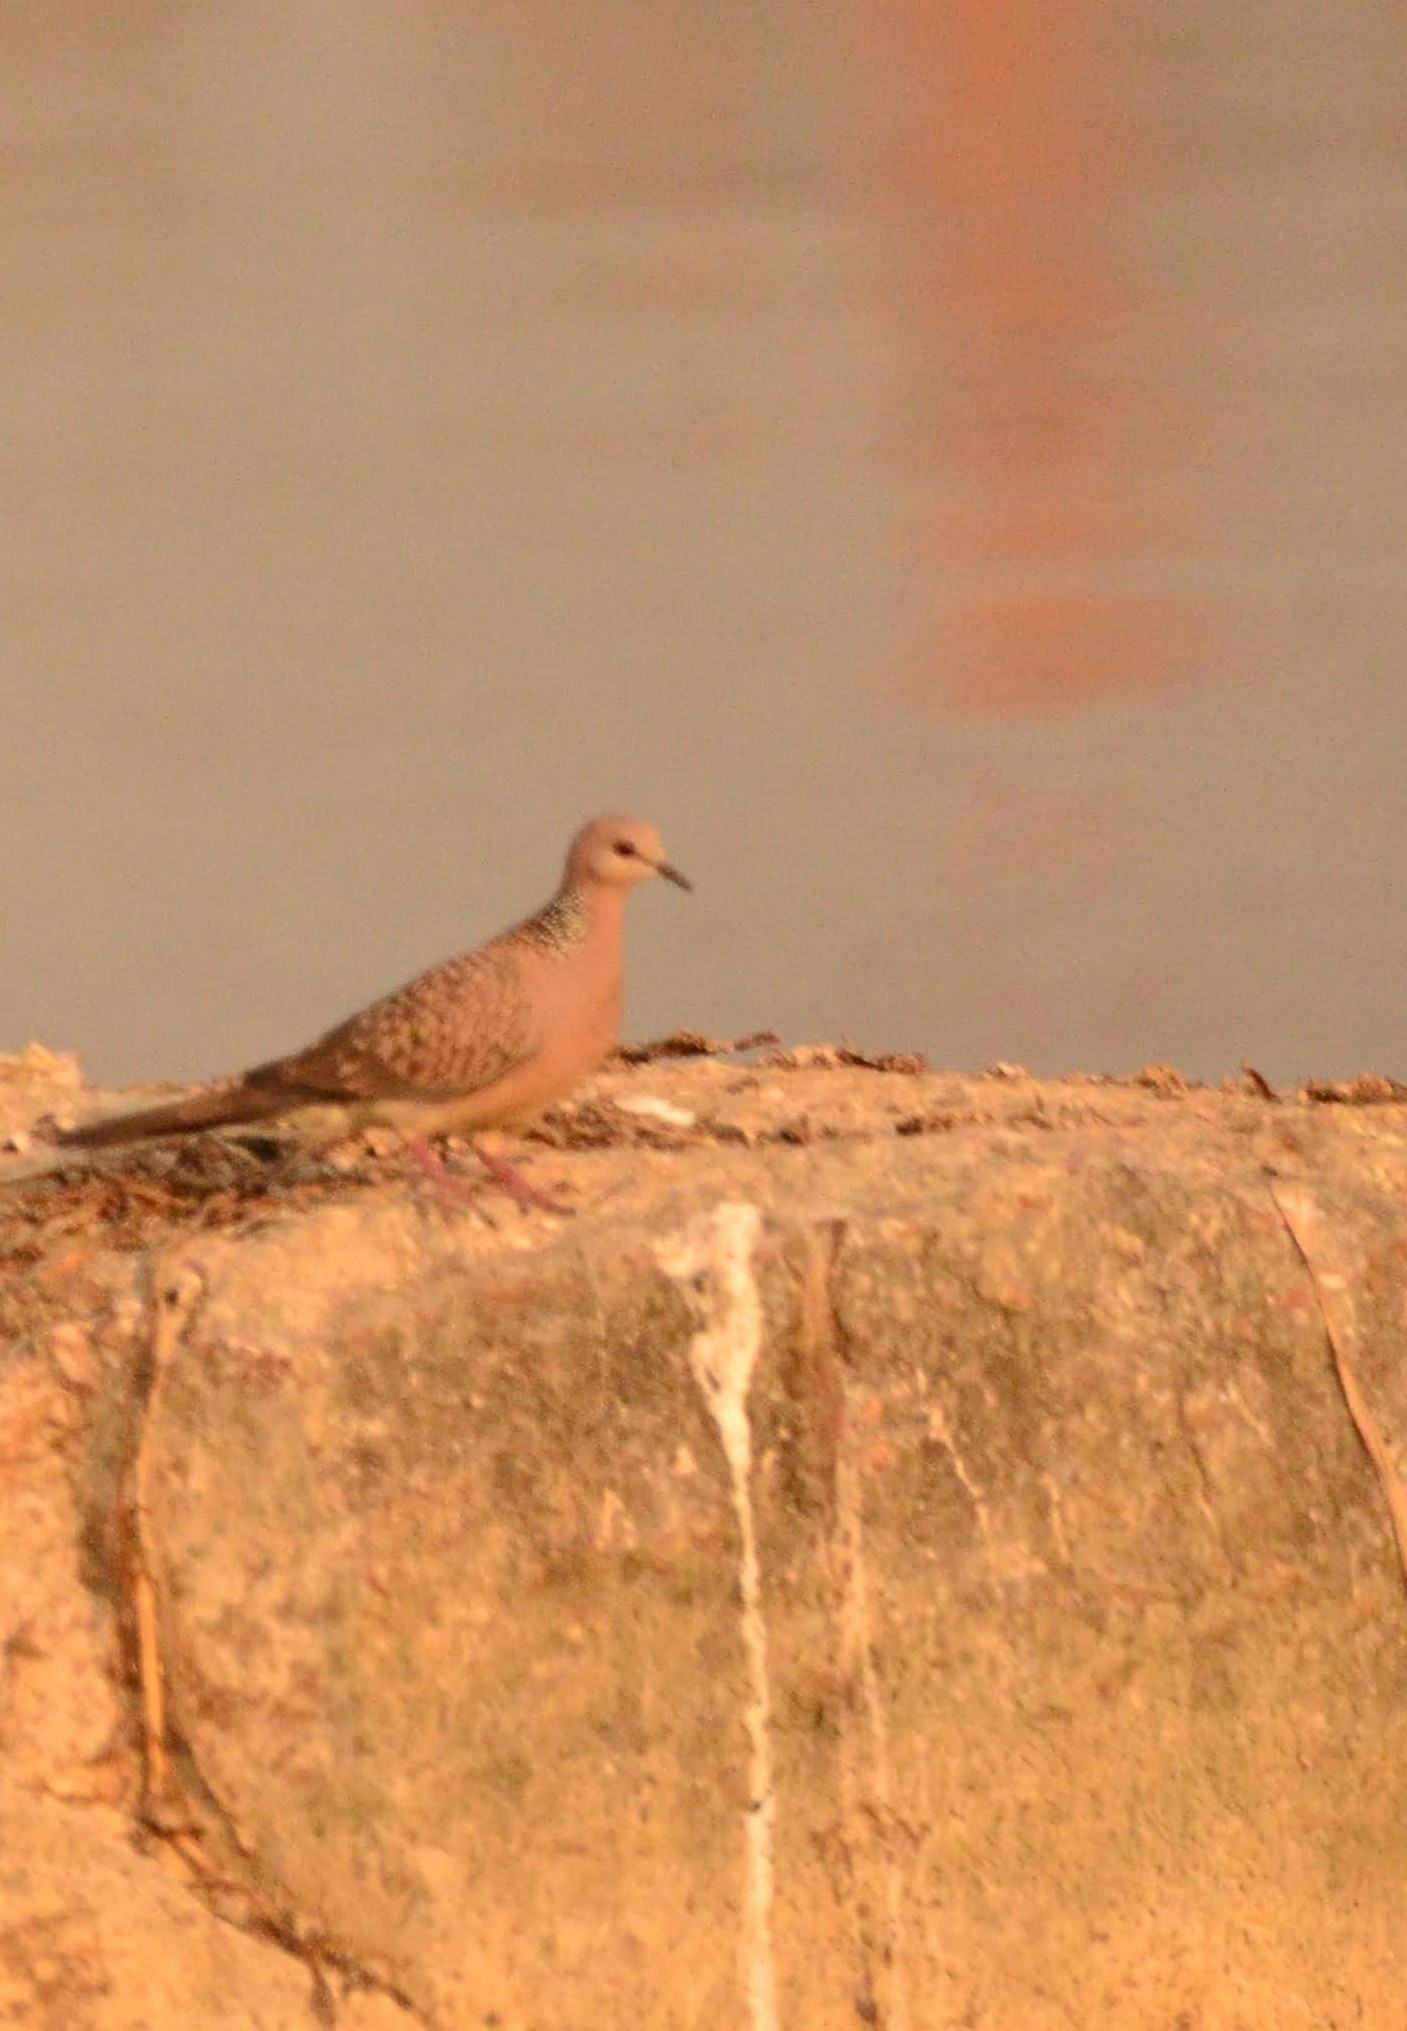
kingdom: Animalia
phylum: Chordata
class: Aves
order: Columbiformes
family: Columbidae
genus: Spilopelia
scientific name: Spilopelia chinensis
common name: Spotted dove
